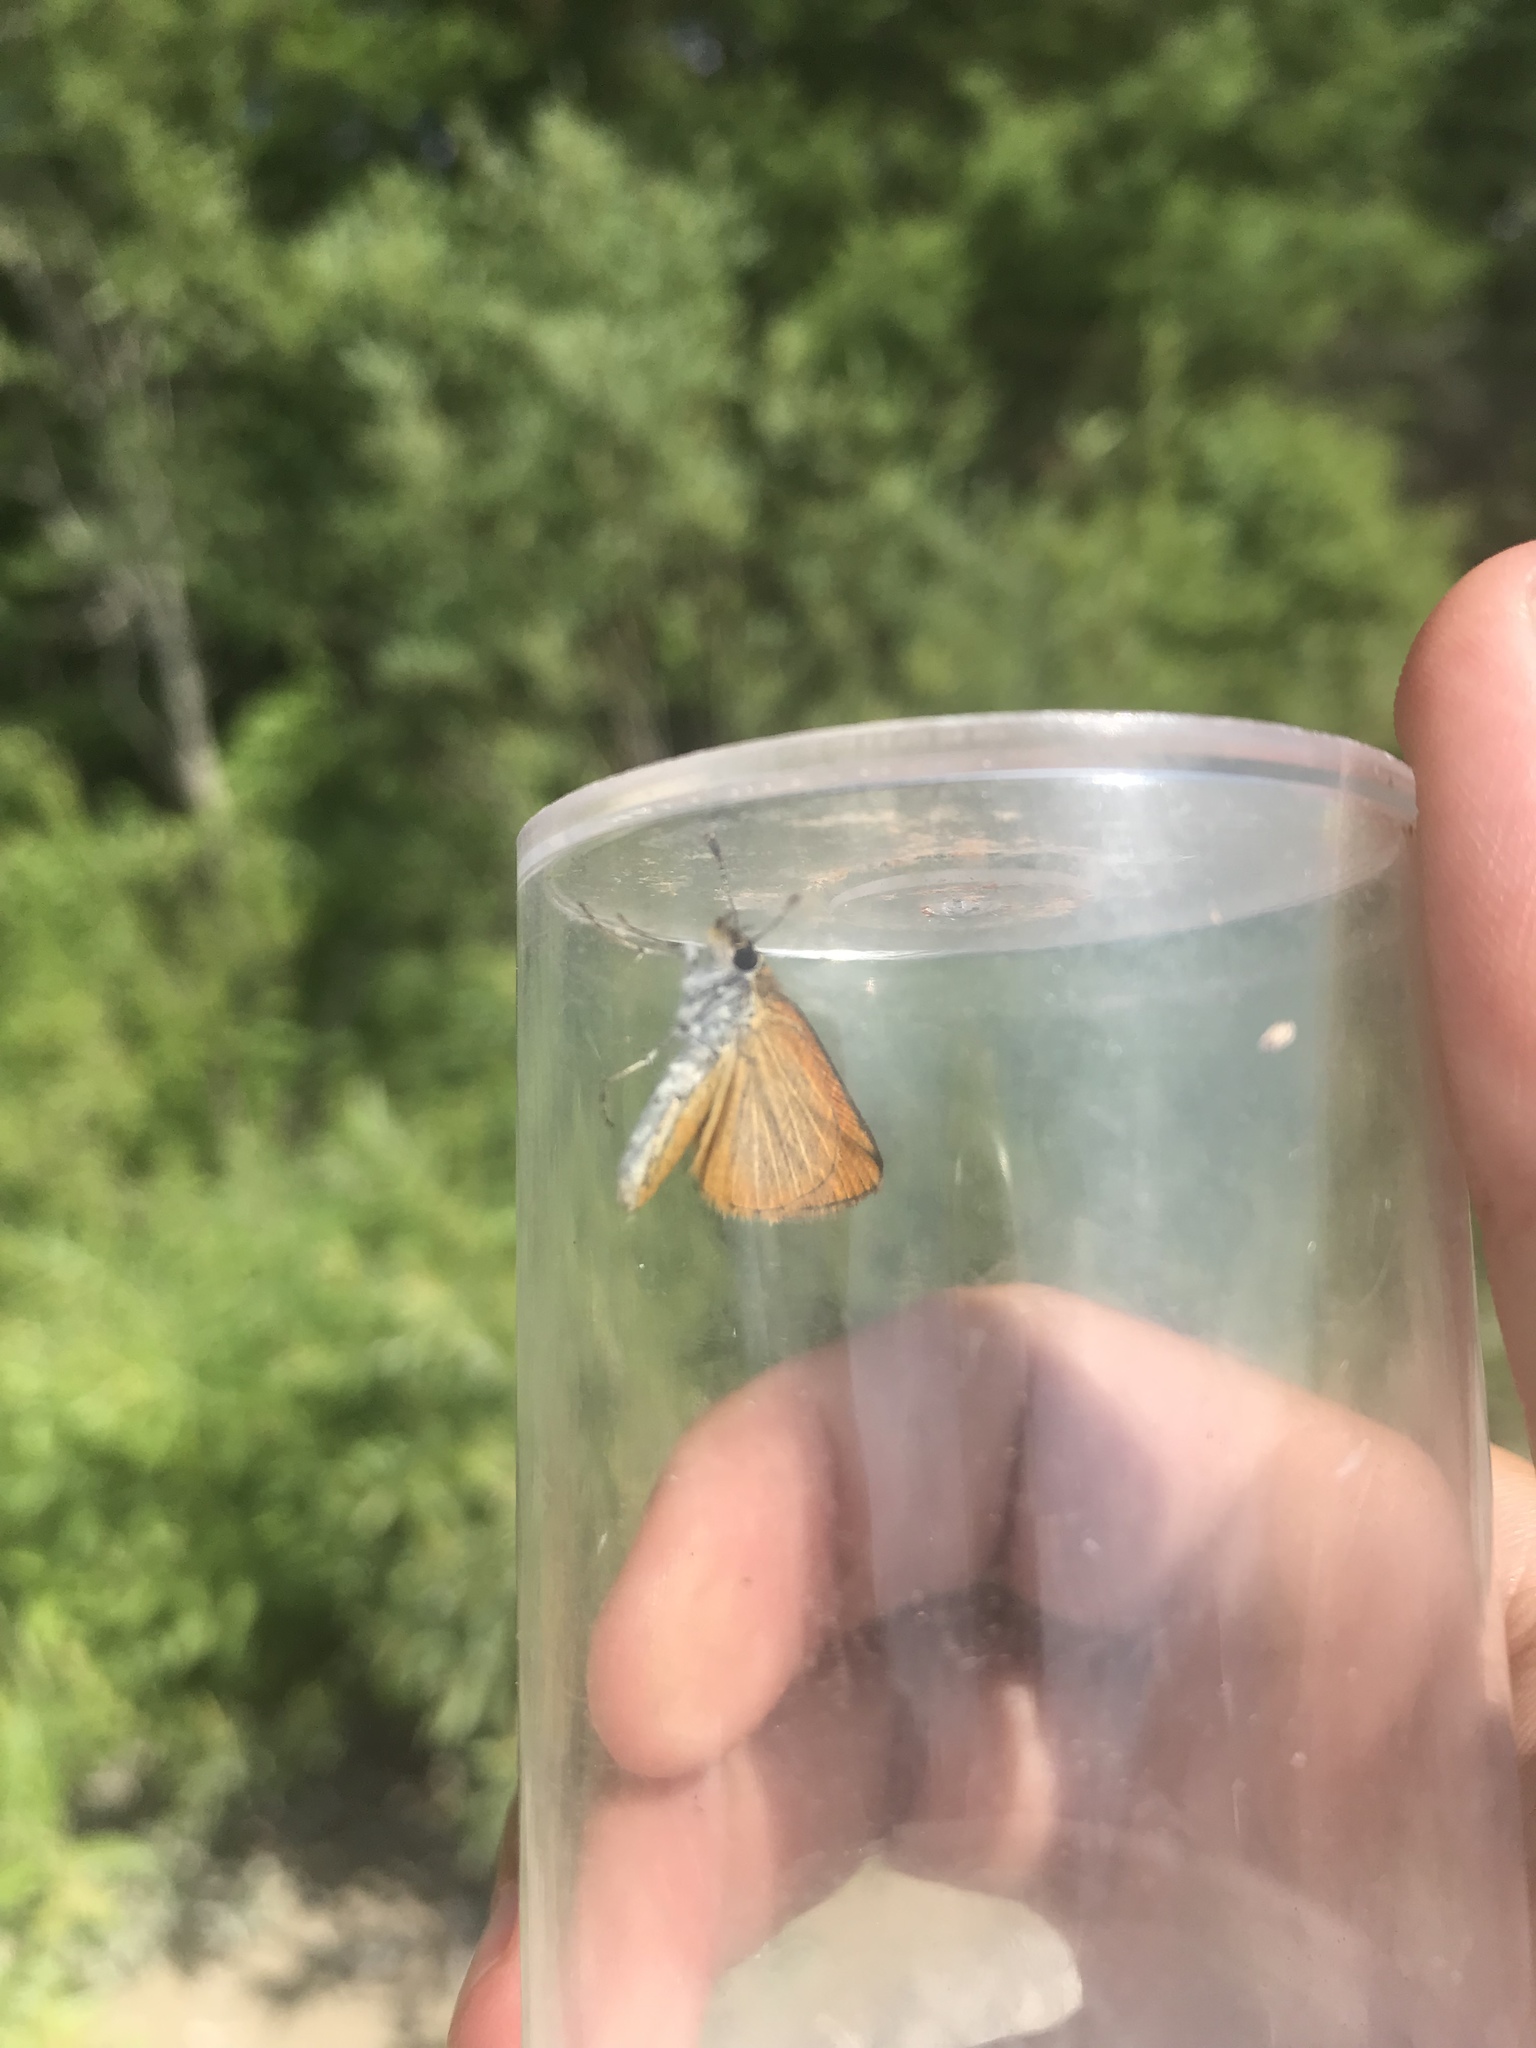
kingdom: Animalia
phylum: Arthropoda
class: Insecta
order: Lepidoptera
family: Hesperiidae
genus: Ancyloxypha
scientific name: Ancyloxypha numitor
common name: Least skipper
